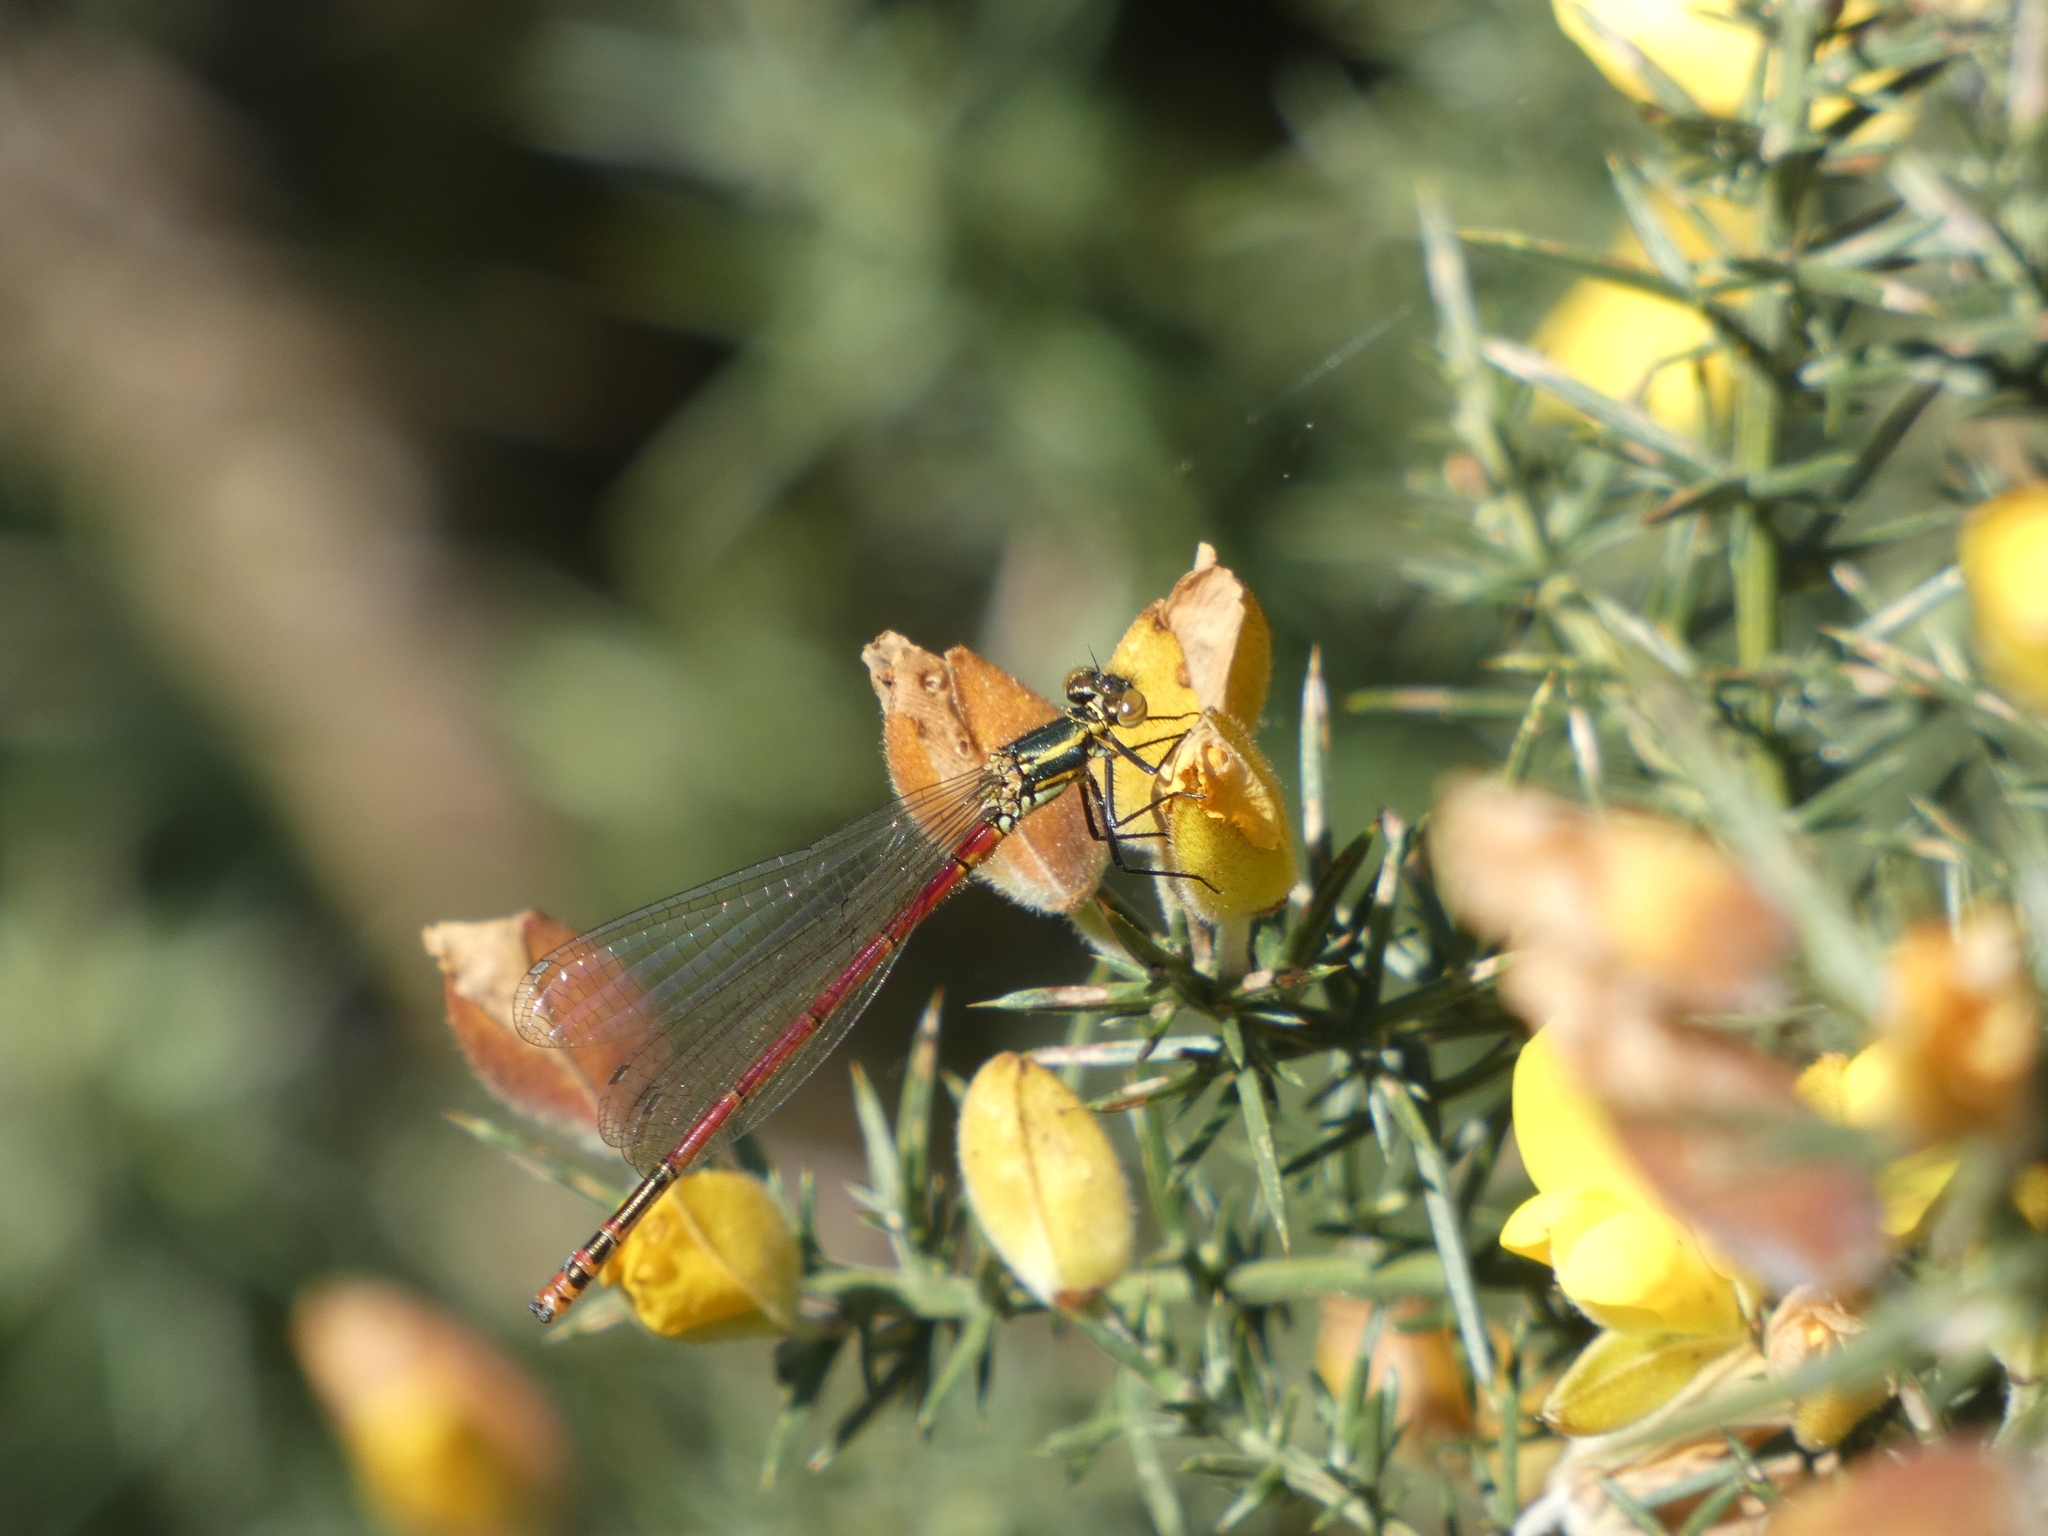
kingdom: Animalia
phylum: Arthropoda
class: Insecta
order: Odonata
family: Coenagrionidae
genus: Pyrrhosoma
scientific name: Pyrrhosoma nymphula
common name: Large red damsel
